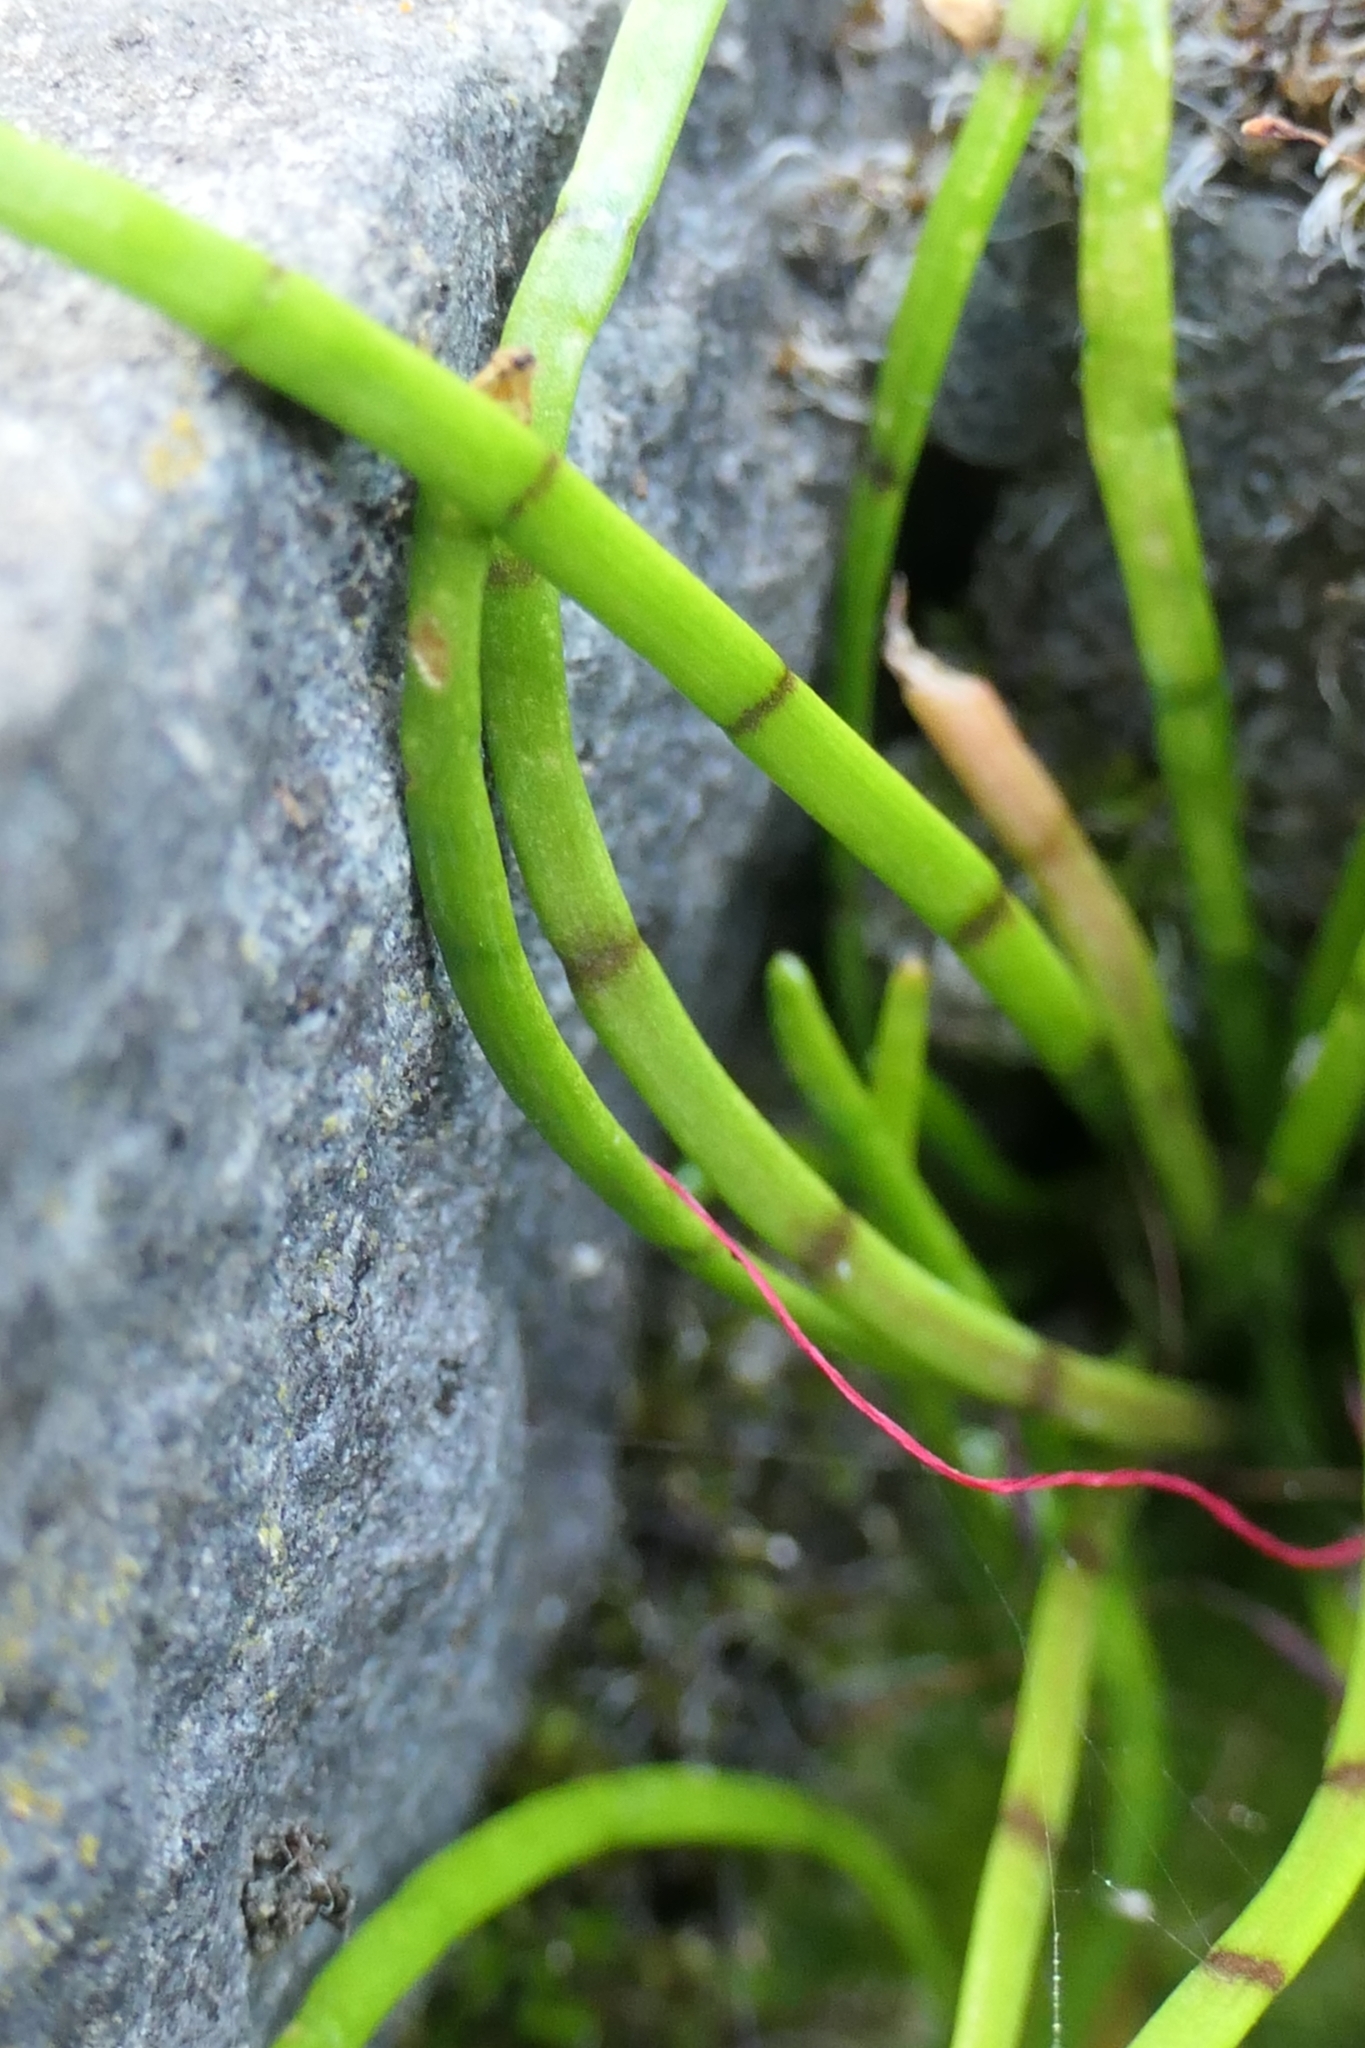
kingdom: Plantae
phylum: Tracheophyta
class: Magnoliopsida
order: Apiales
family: Apiaceae
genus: Lilaeopsis
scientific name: Lilaeopsis novae-zelandiae
